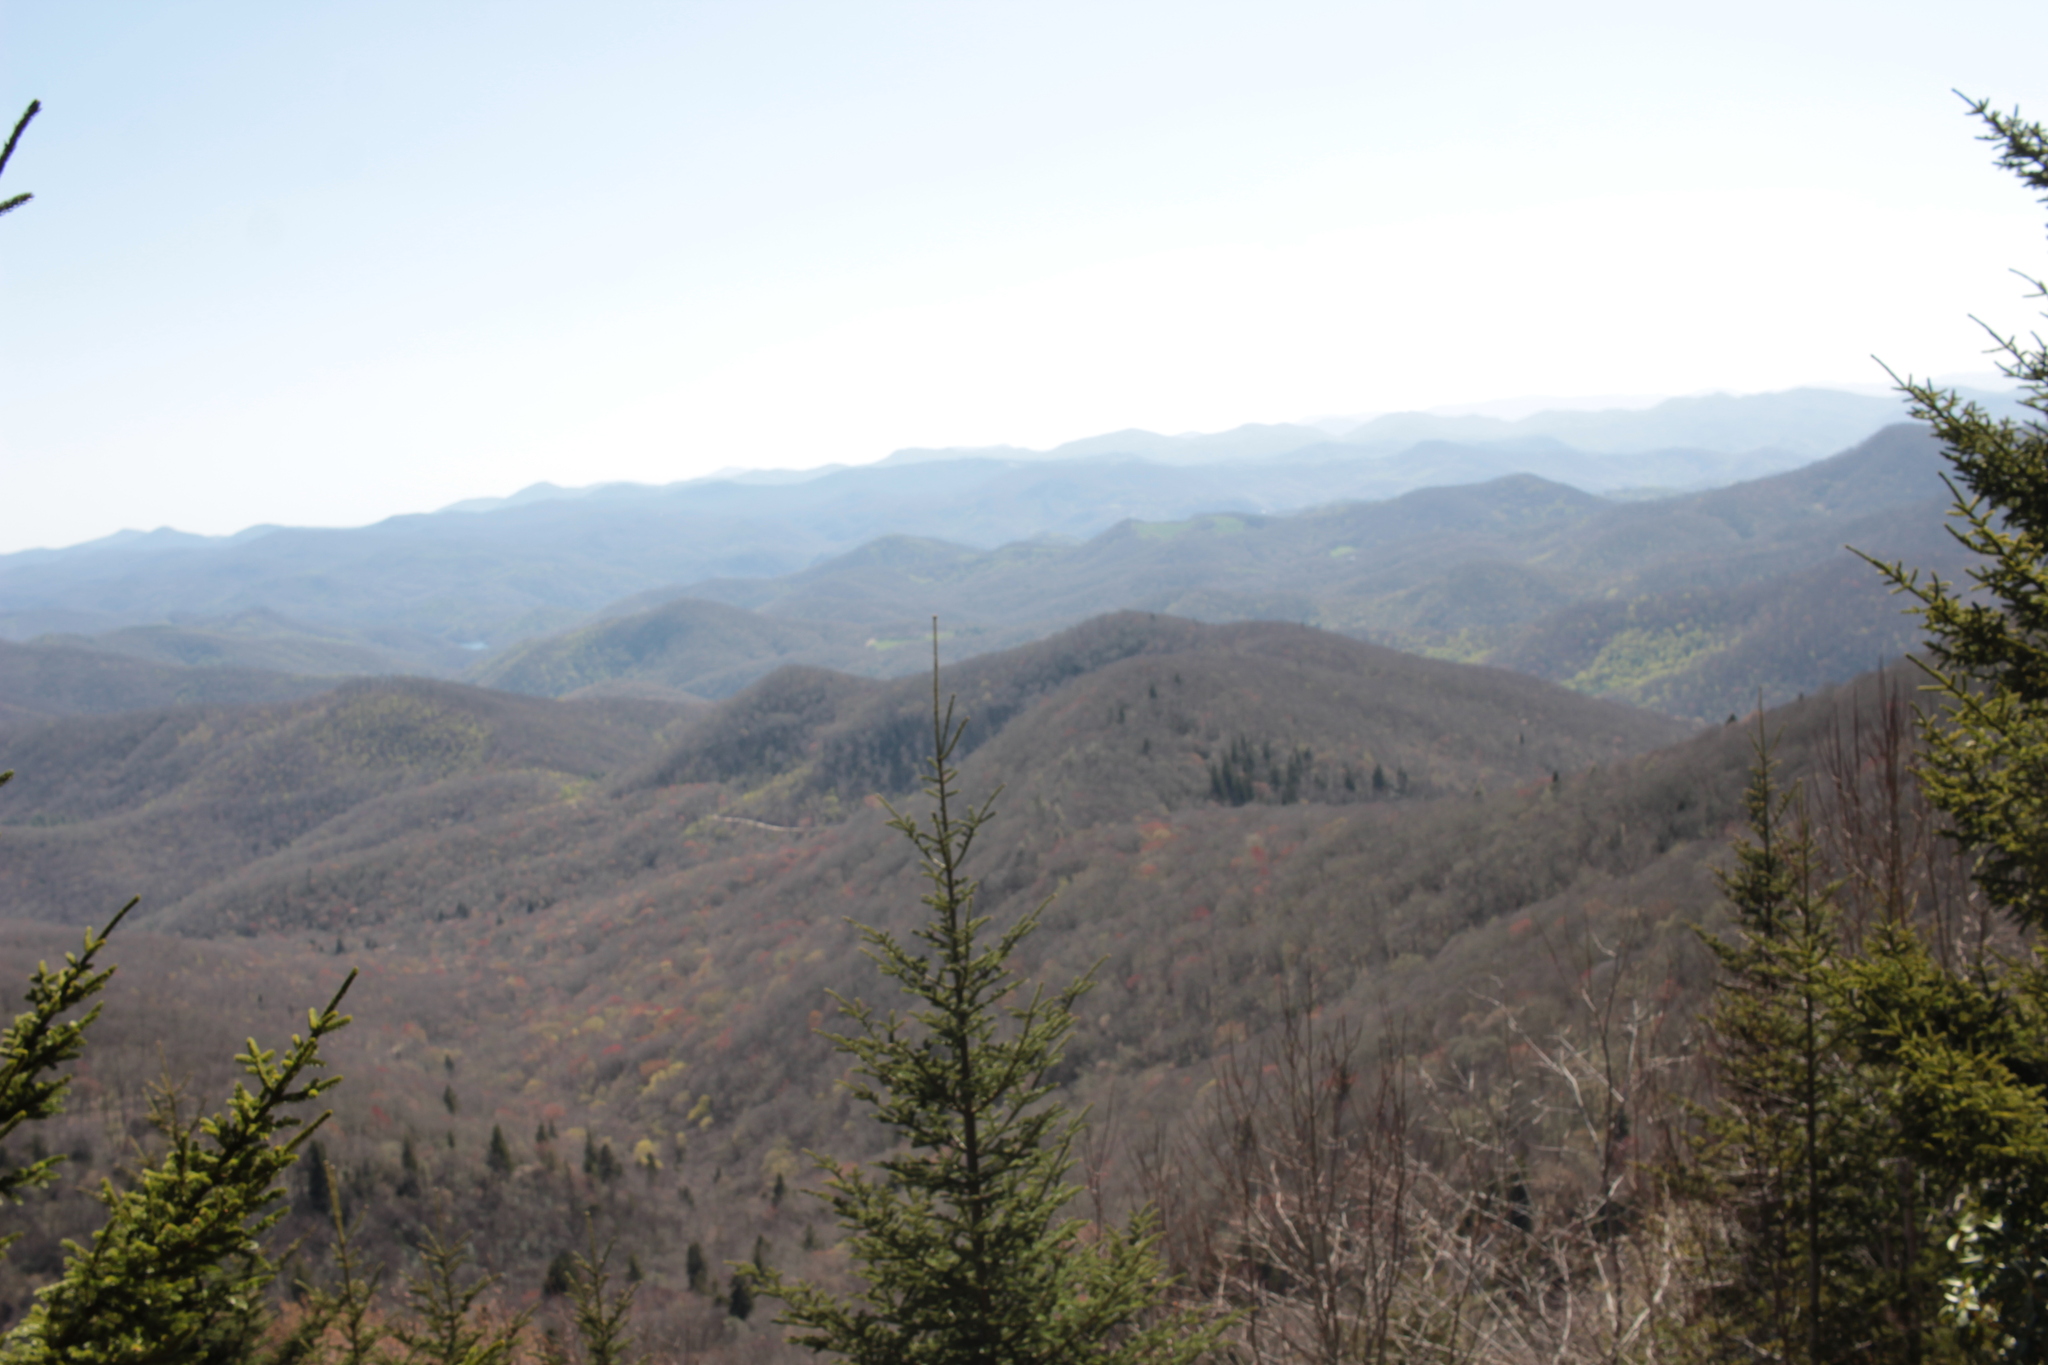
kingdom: Plantae
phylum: Tracheophyta
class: Pinopsida
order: Pinales
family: Pinaceae
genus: Picea
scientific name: Picea rubens
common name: Red spruce
